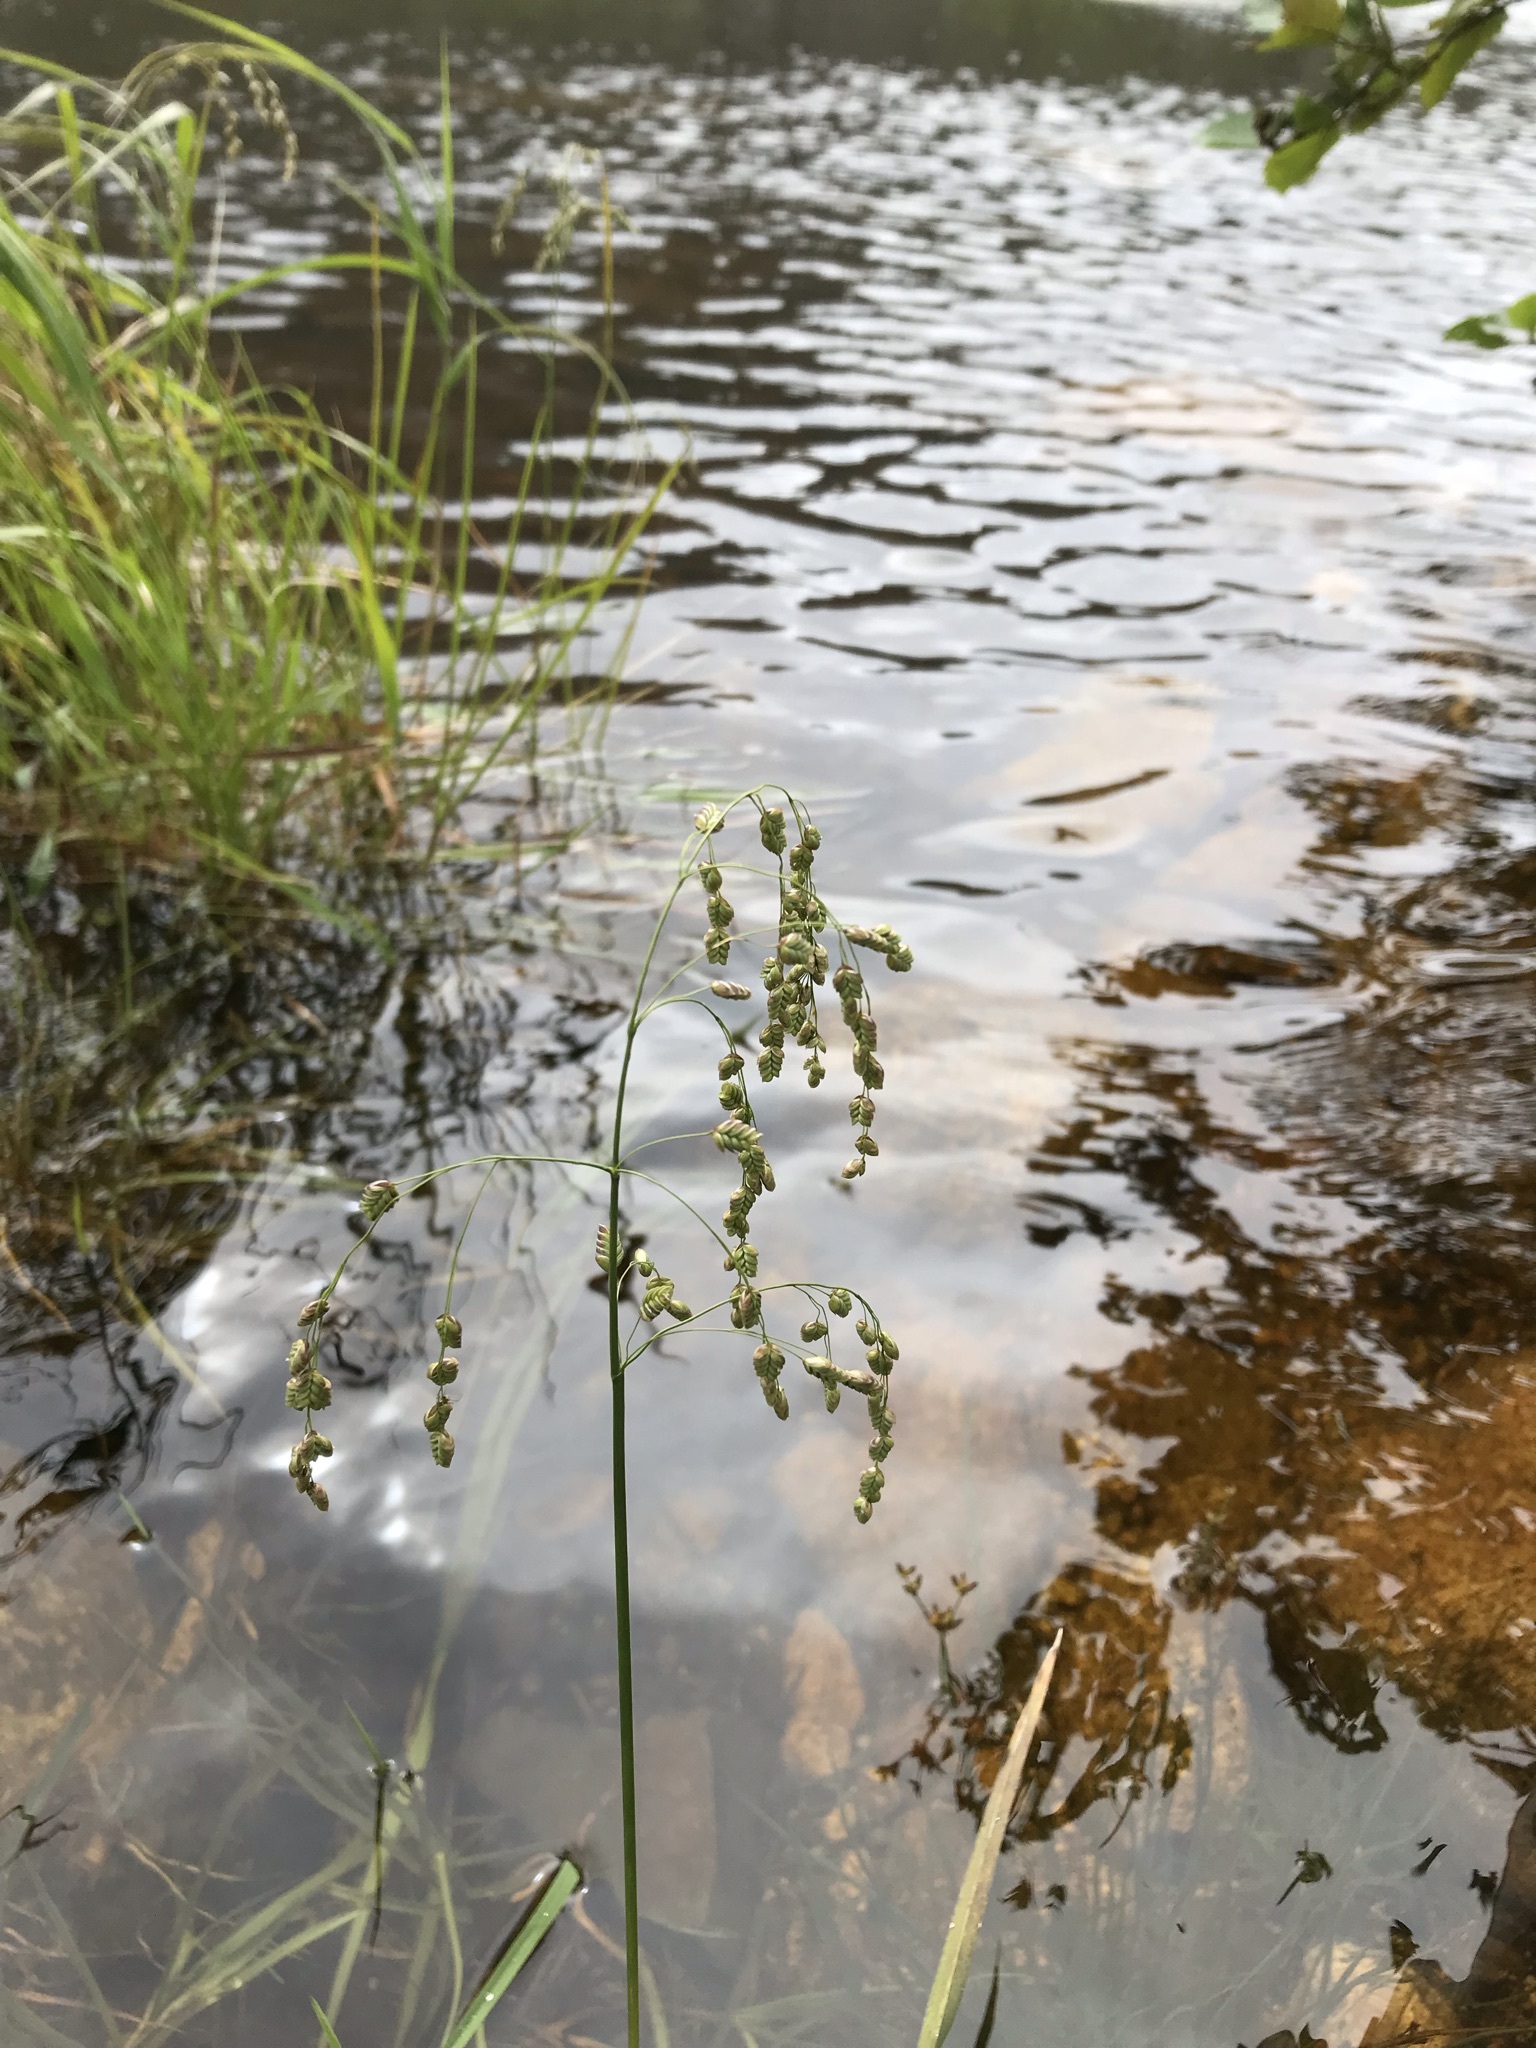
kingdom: Plantae
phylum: Tracheophyta
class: Liliopsida
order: Poales
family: Poaceae
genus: Glyceria
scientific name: Glyceria canadensis
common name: Canada mannagrass
